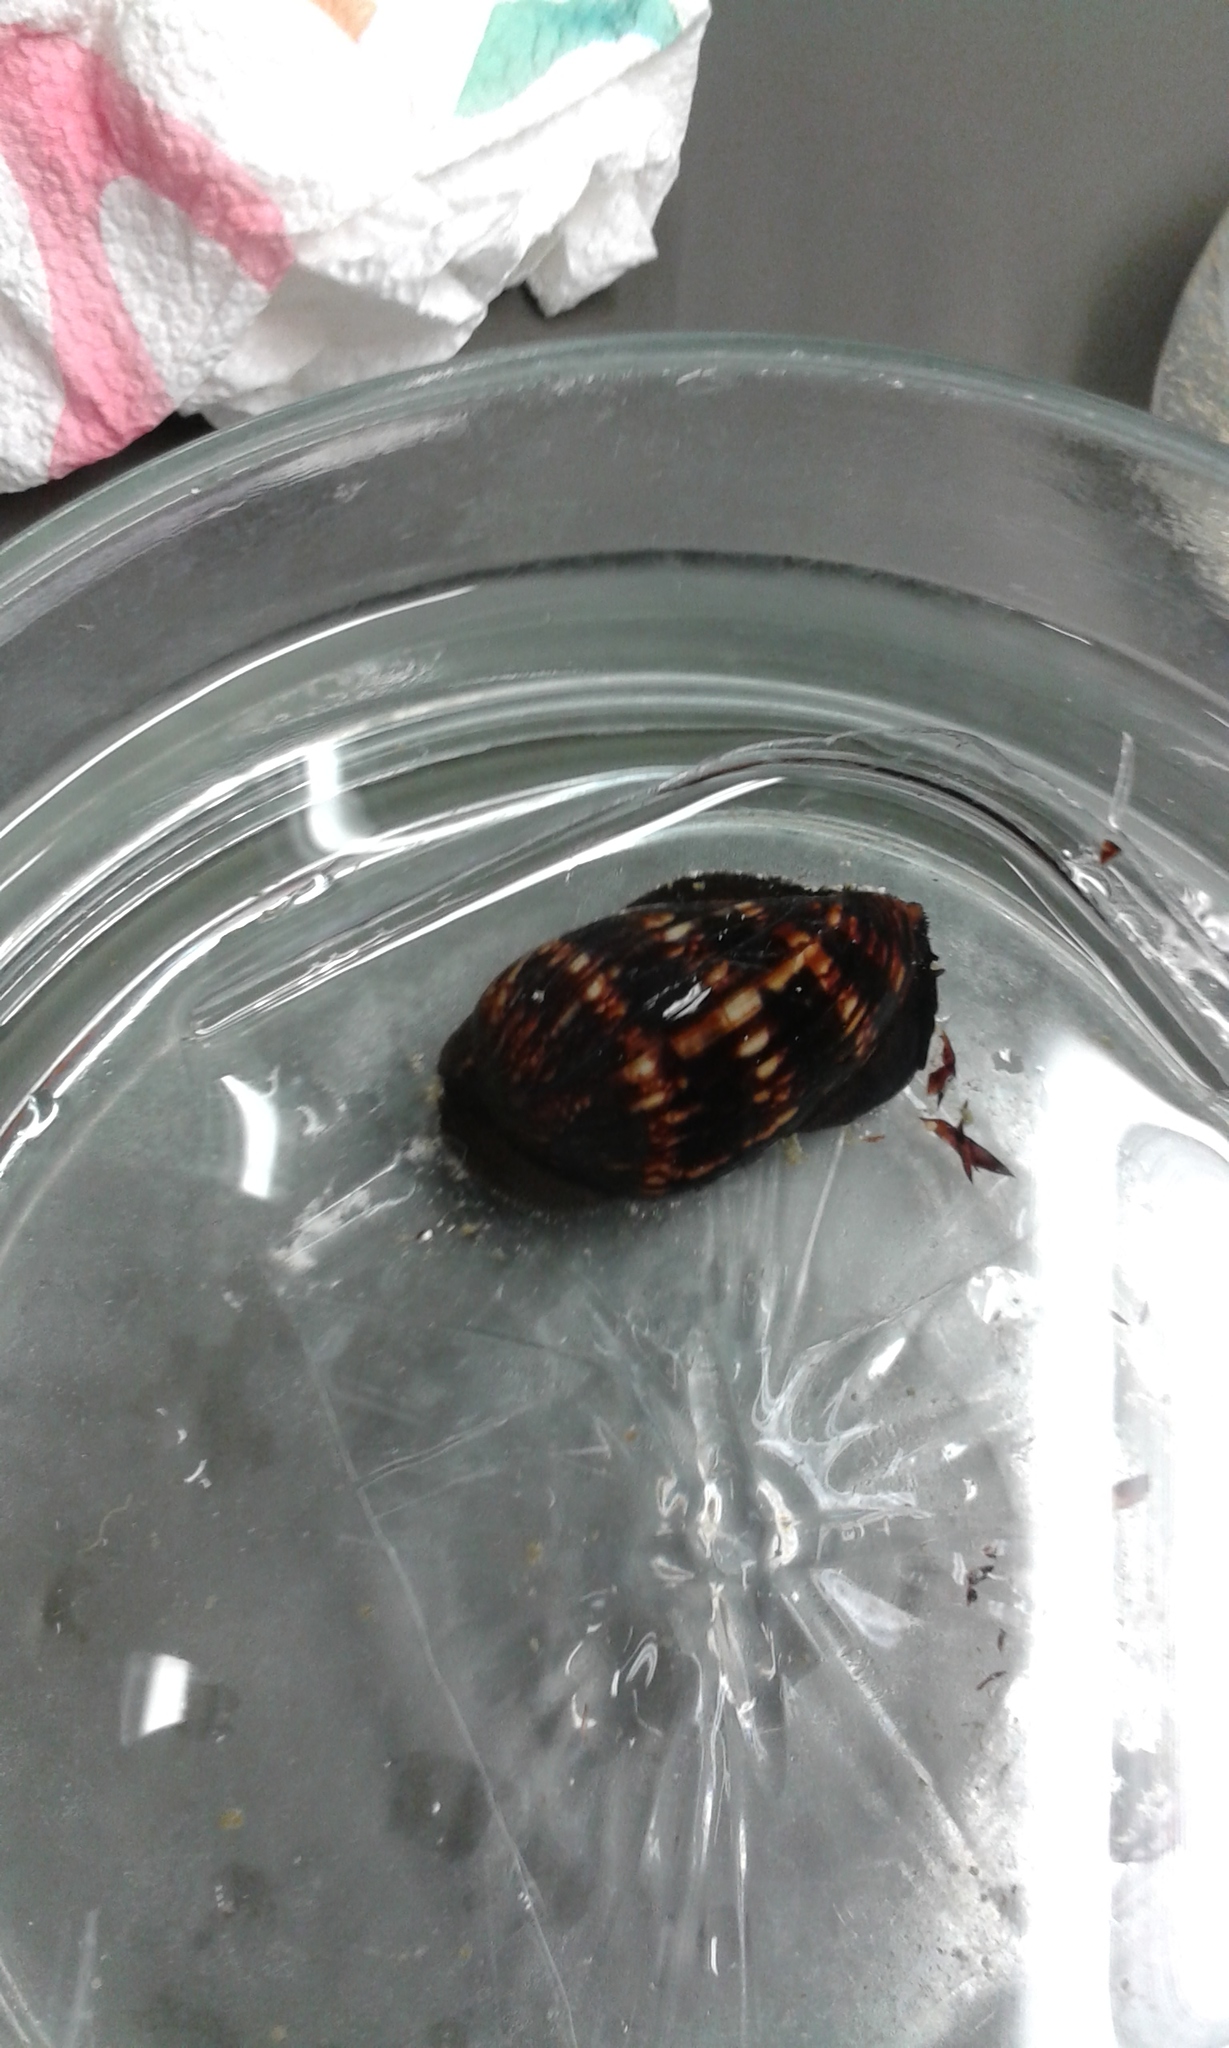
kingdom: Animalia
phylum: Mollusca
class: Gastropoda
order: Littorinimorpha
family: Cypraeidae
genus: Mauritia
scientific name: Mauritia mauritiana
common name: Hump-backed cowrie
